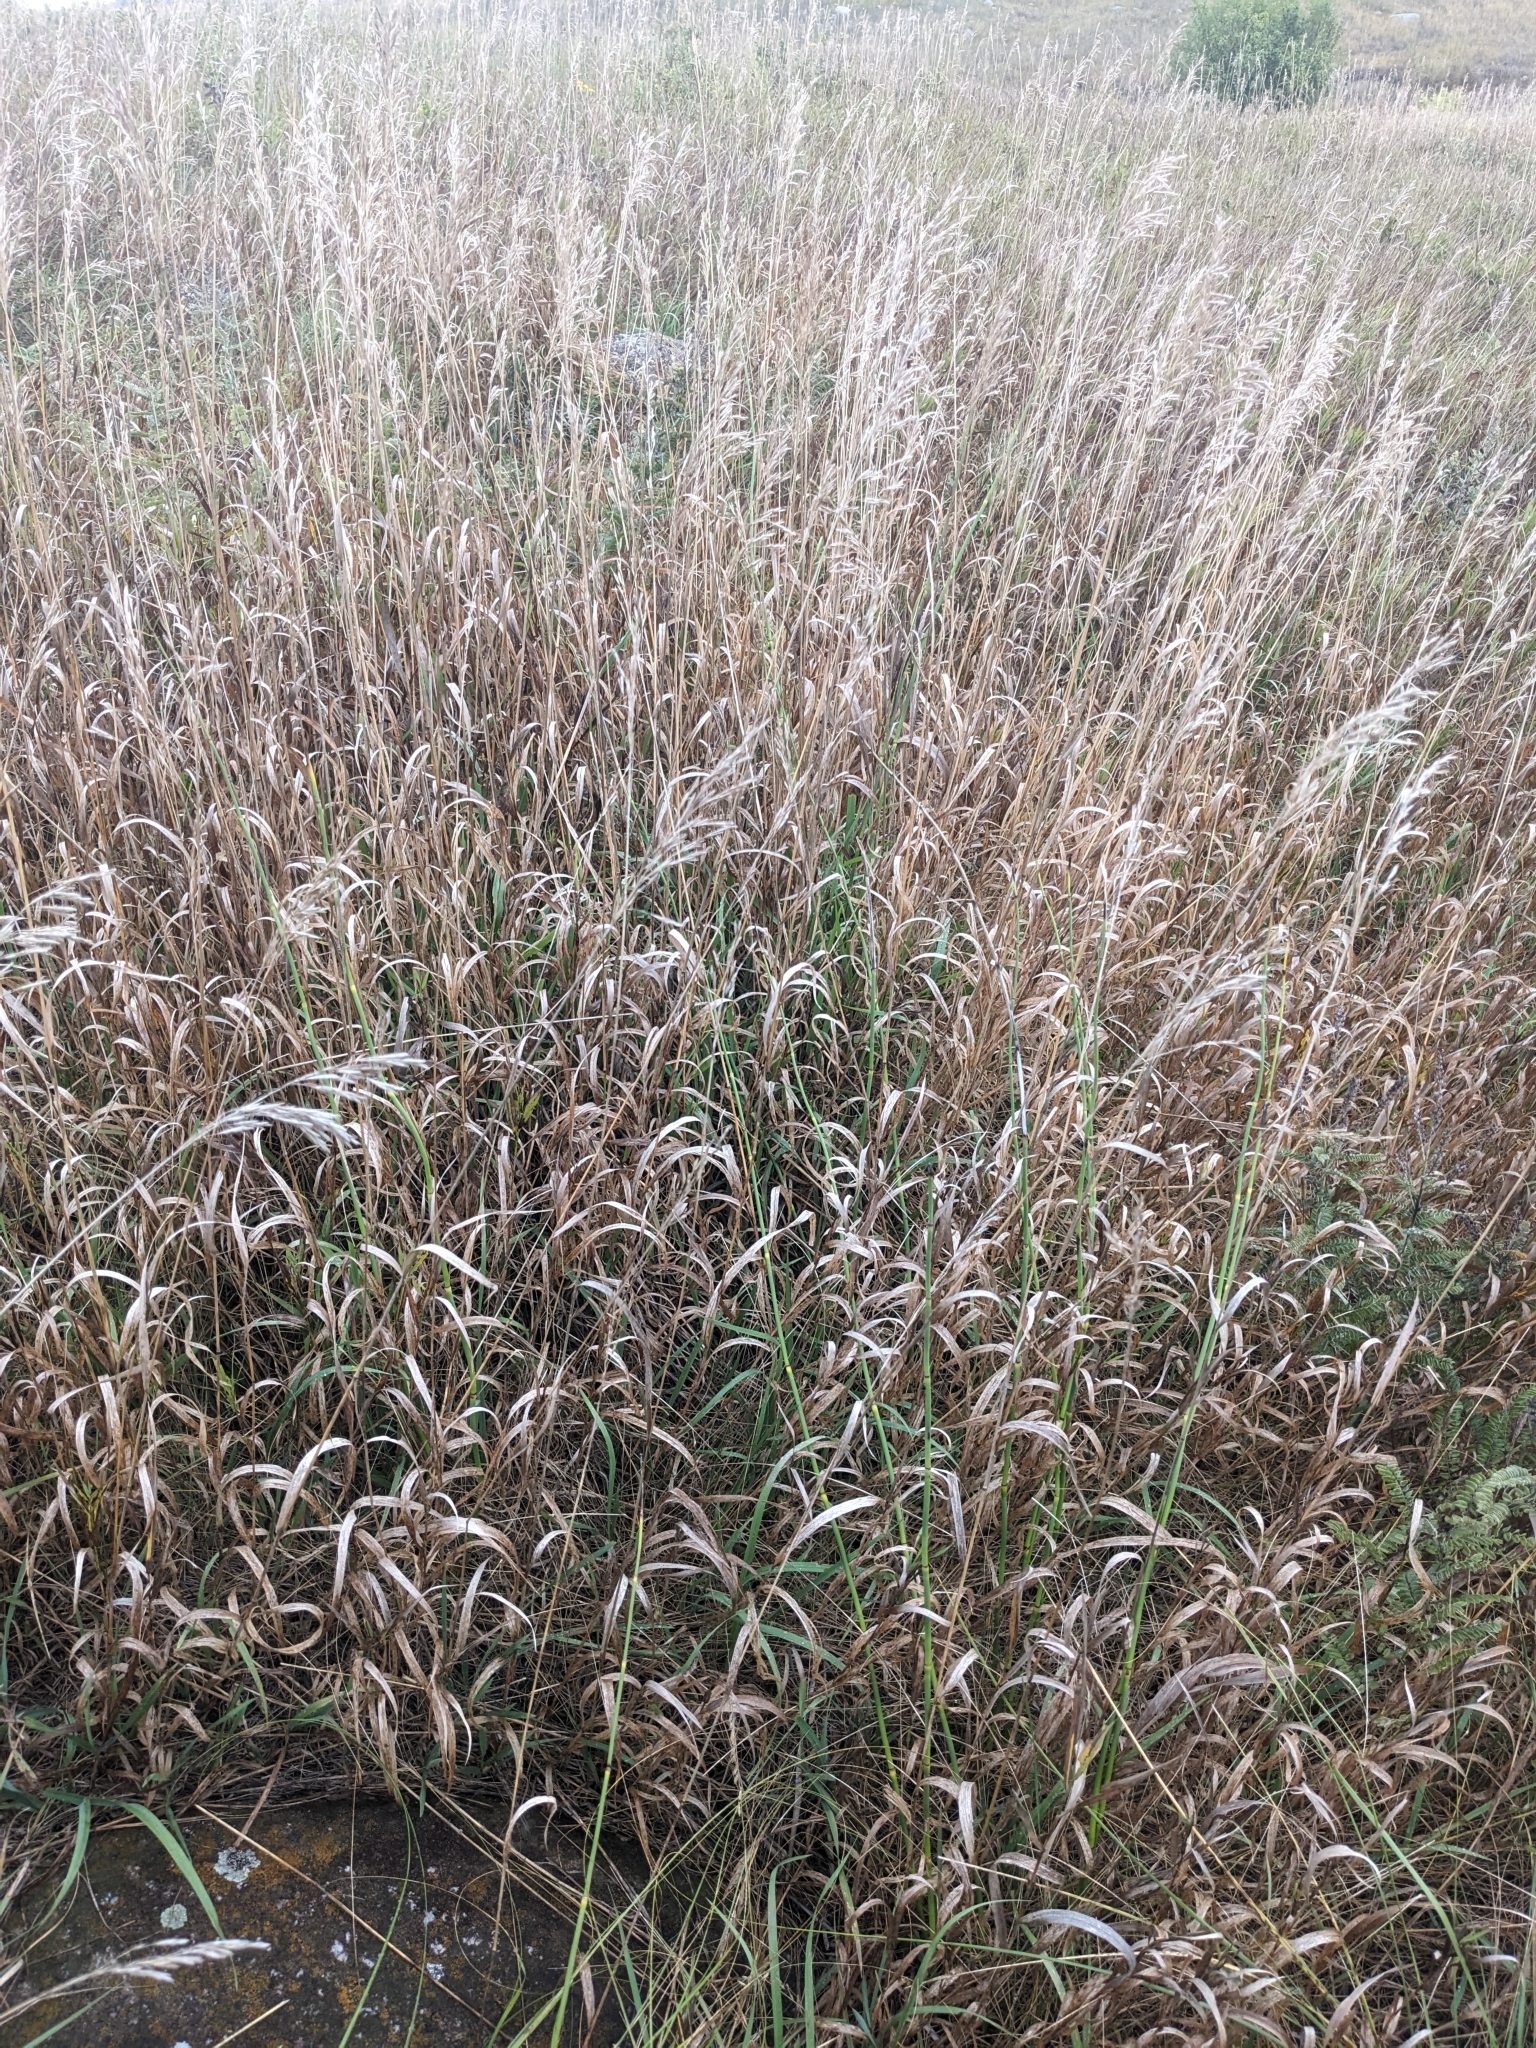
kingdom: Plantae
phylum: Tracheophyta
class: Liliopsida
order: Poales
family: Poaceae
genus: Bromus
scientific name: Bromus inermis
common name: Smooth brome
